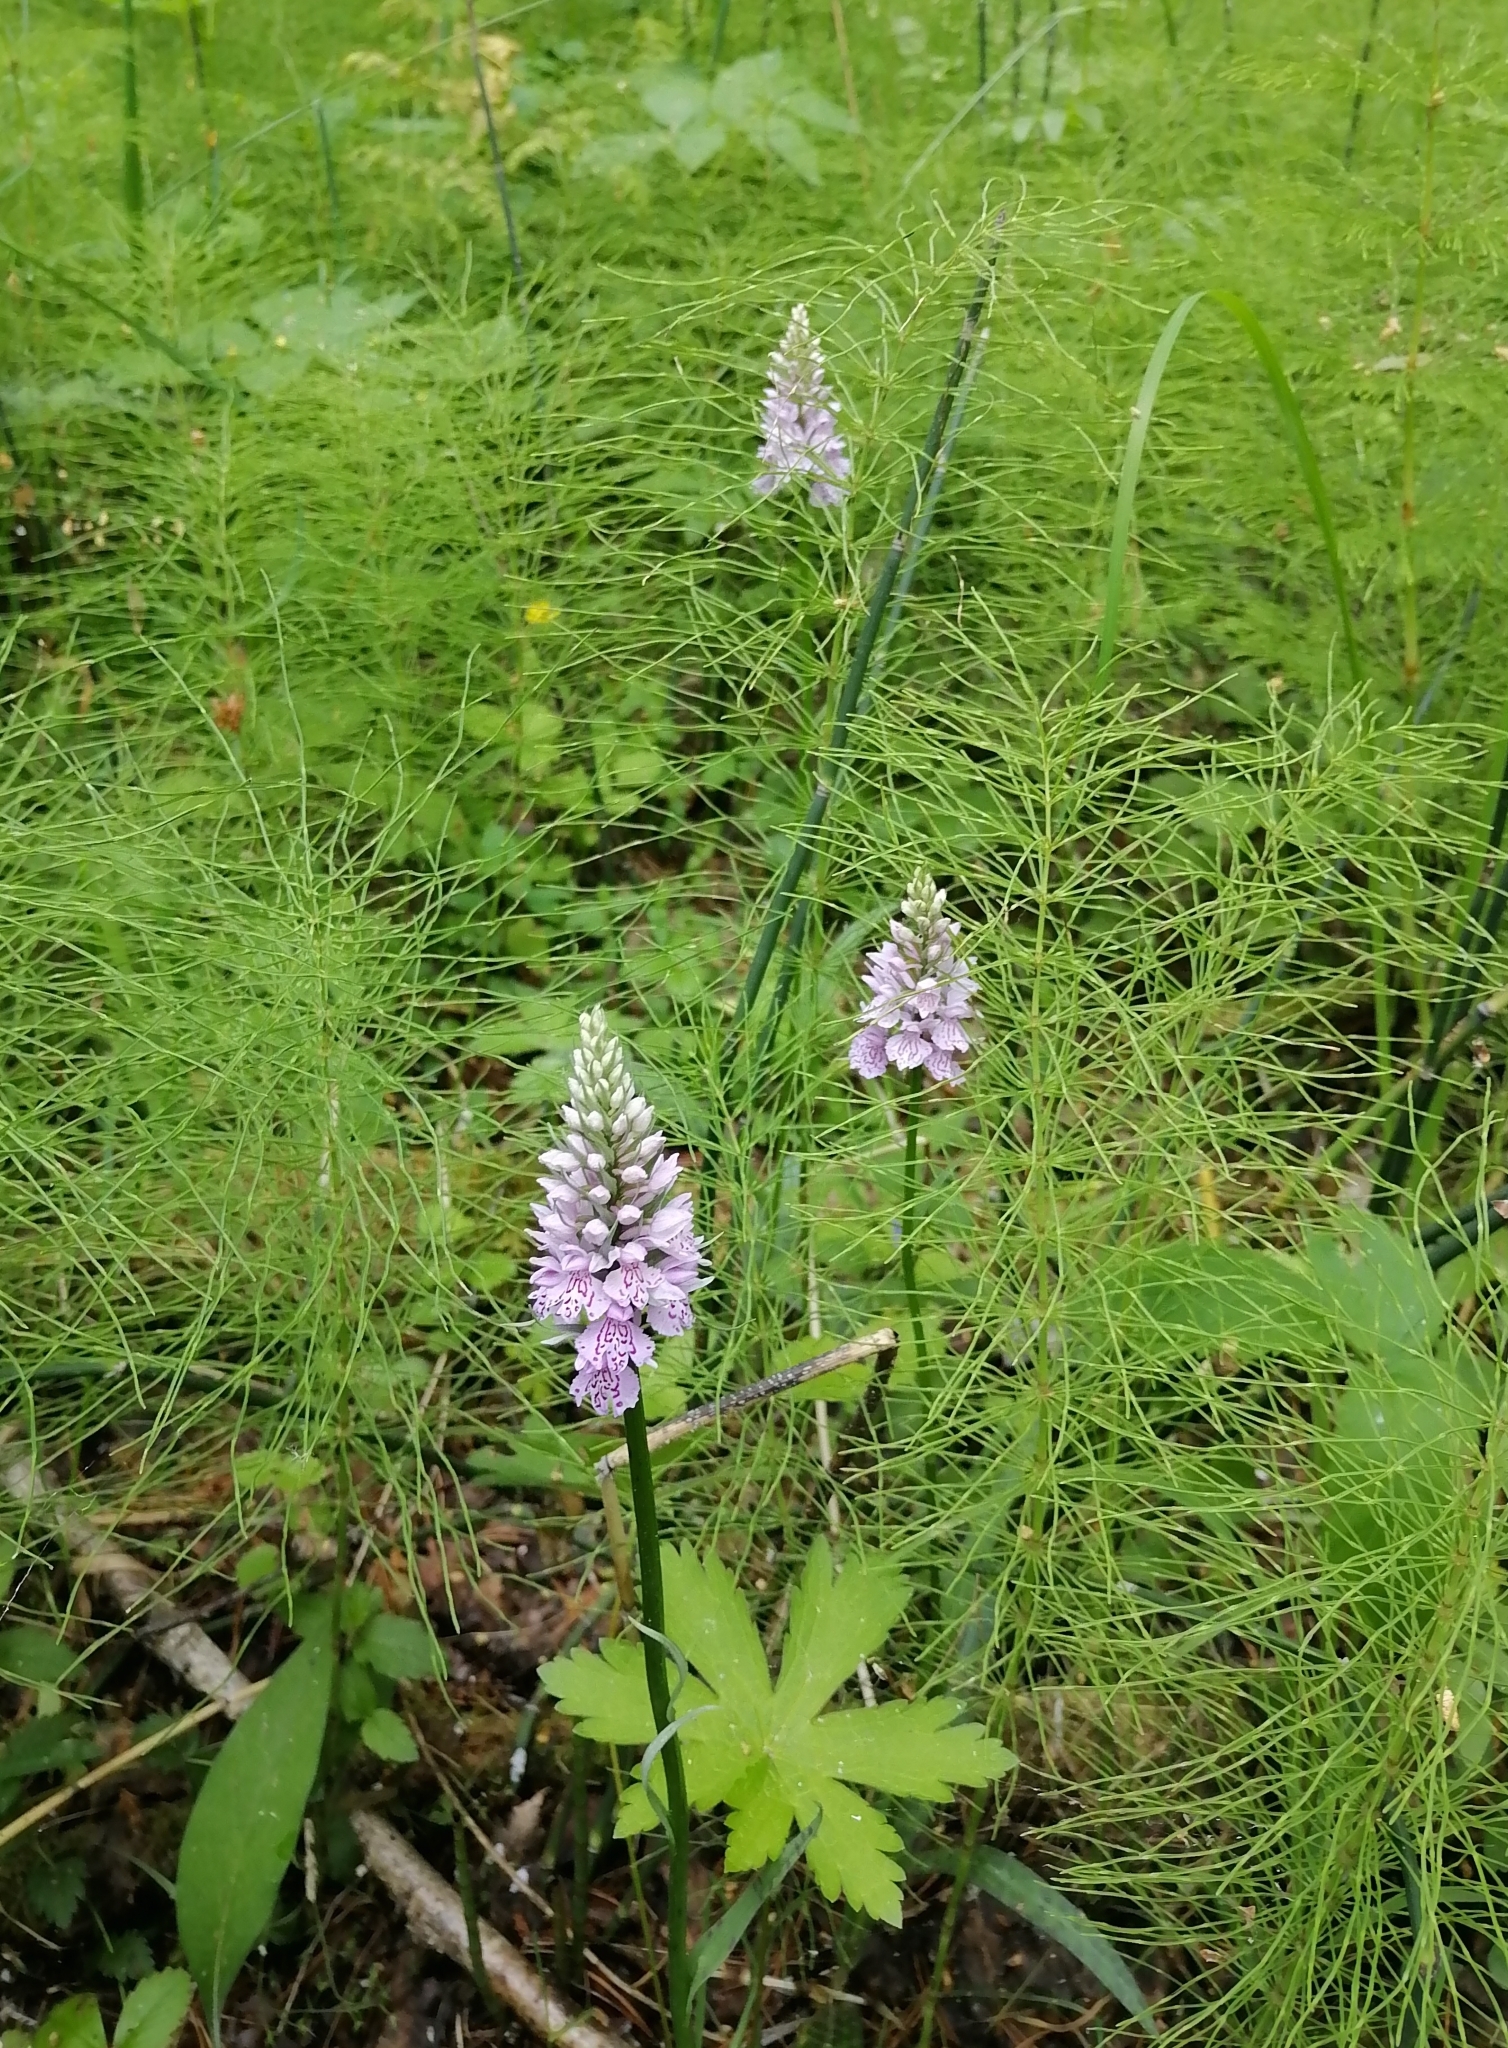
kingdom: Plantae
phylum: Tracheophyta
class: Liliopsida
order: Asparagales
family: Orchidaceae
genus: Dactylorhiza
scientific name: Dactylorhiza maculata
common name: Heath spotted-orchid
